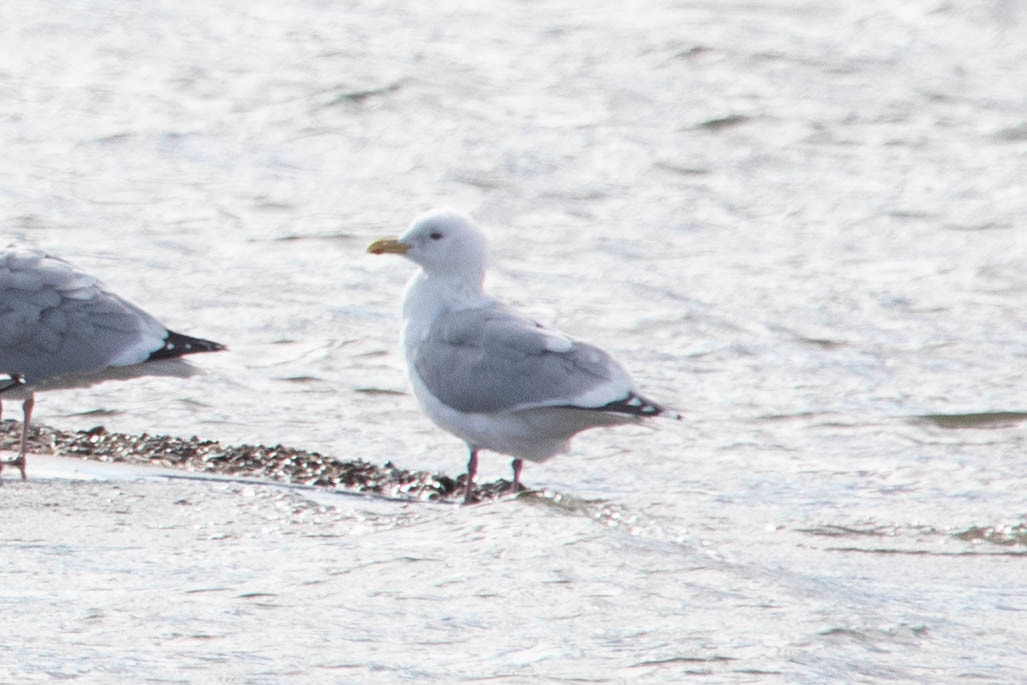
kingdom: Animalia
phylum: Chordata
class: Aves
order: Charadriiformes
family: Laridae
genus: Larus
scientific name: Larus glaucoides
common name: Iceland gull
